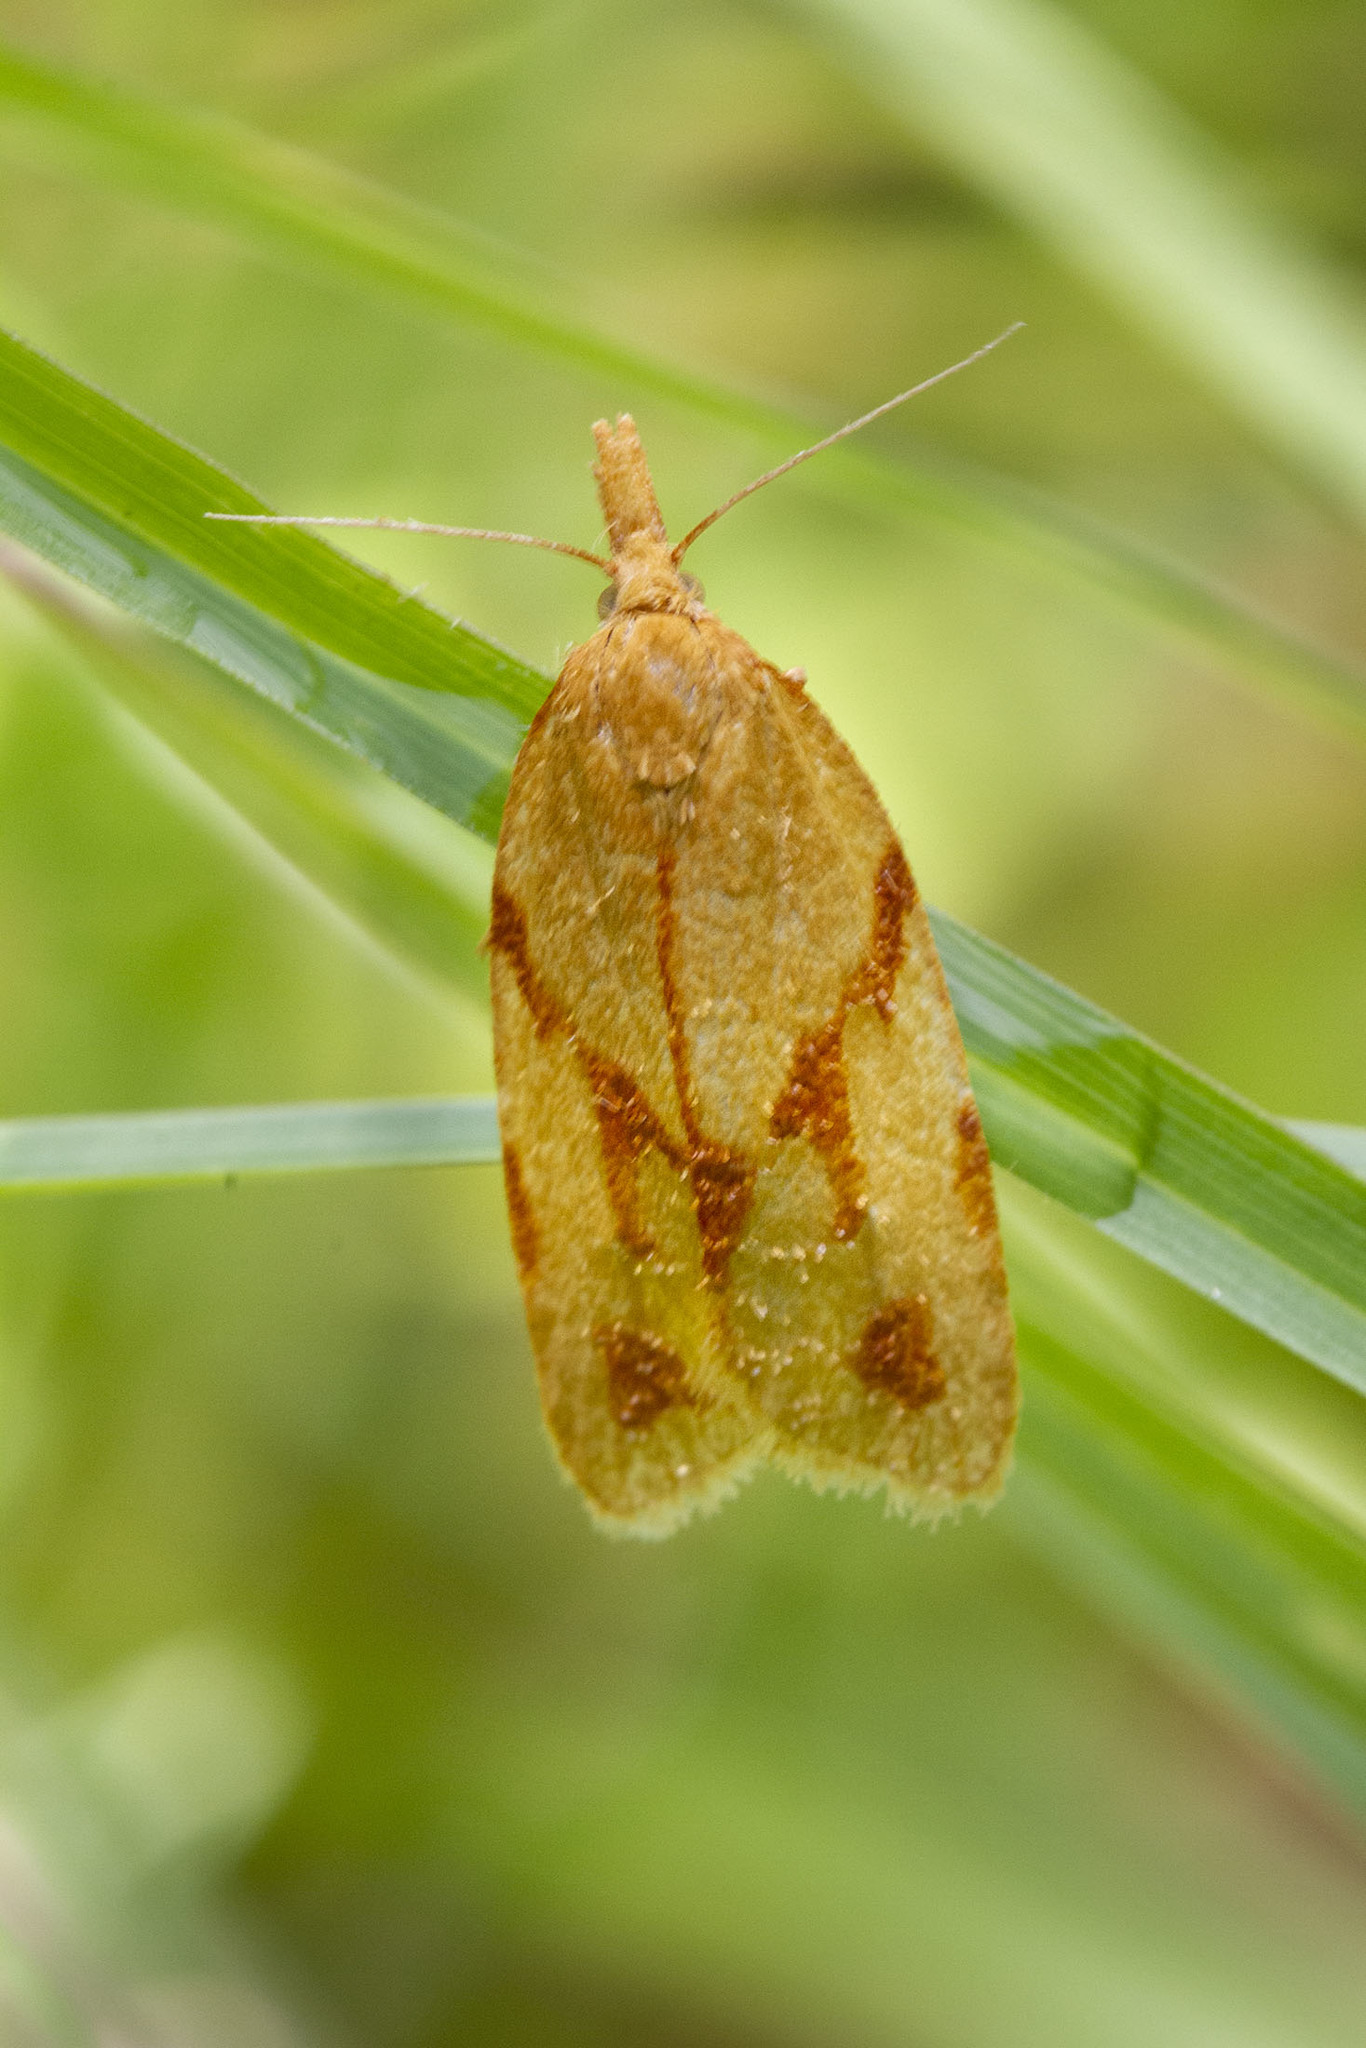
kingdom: Animalia
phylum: Arthropoda
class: Insecta
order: Lepidoptera
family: Tortricidae
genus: Sparganothis
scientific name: Sparganothis unifasciana
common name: One-lined sparganothis moth
